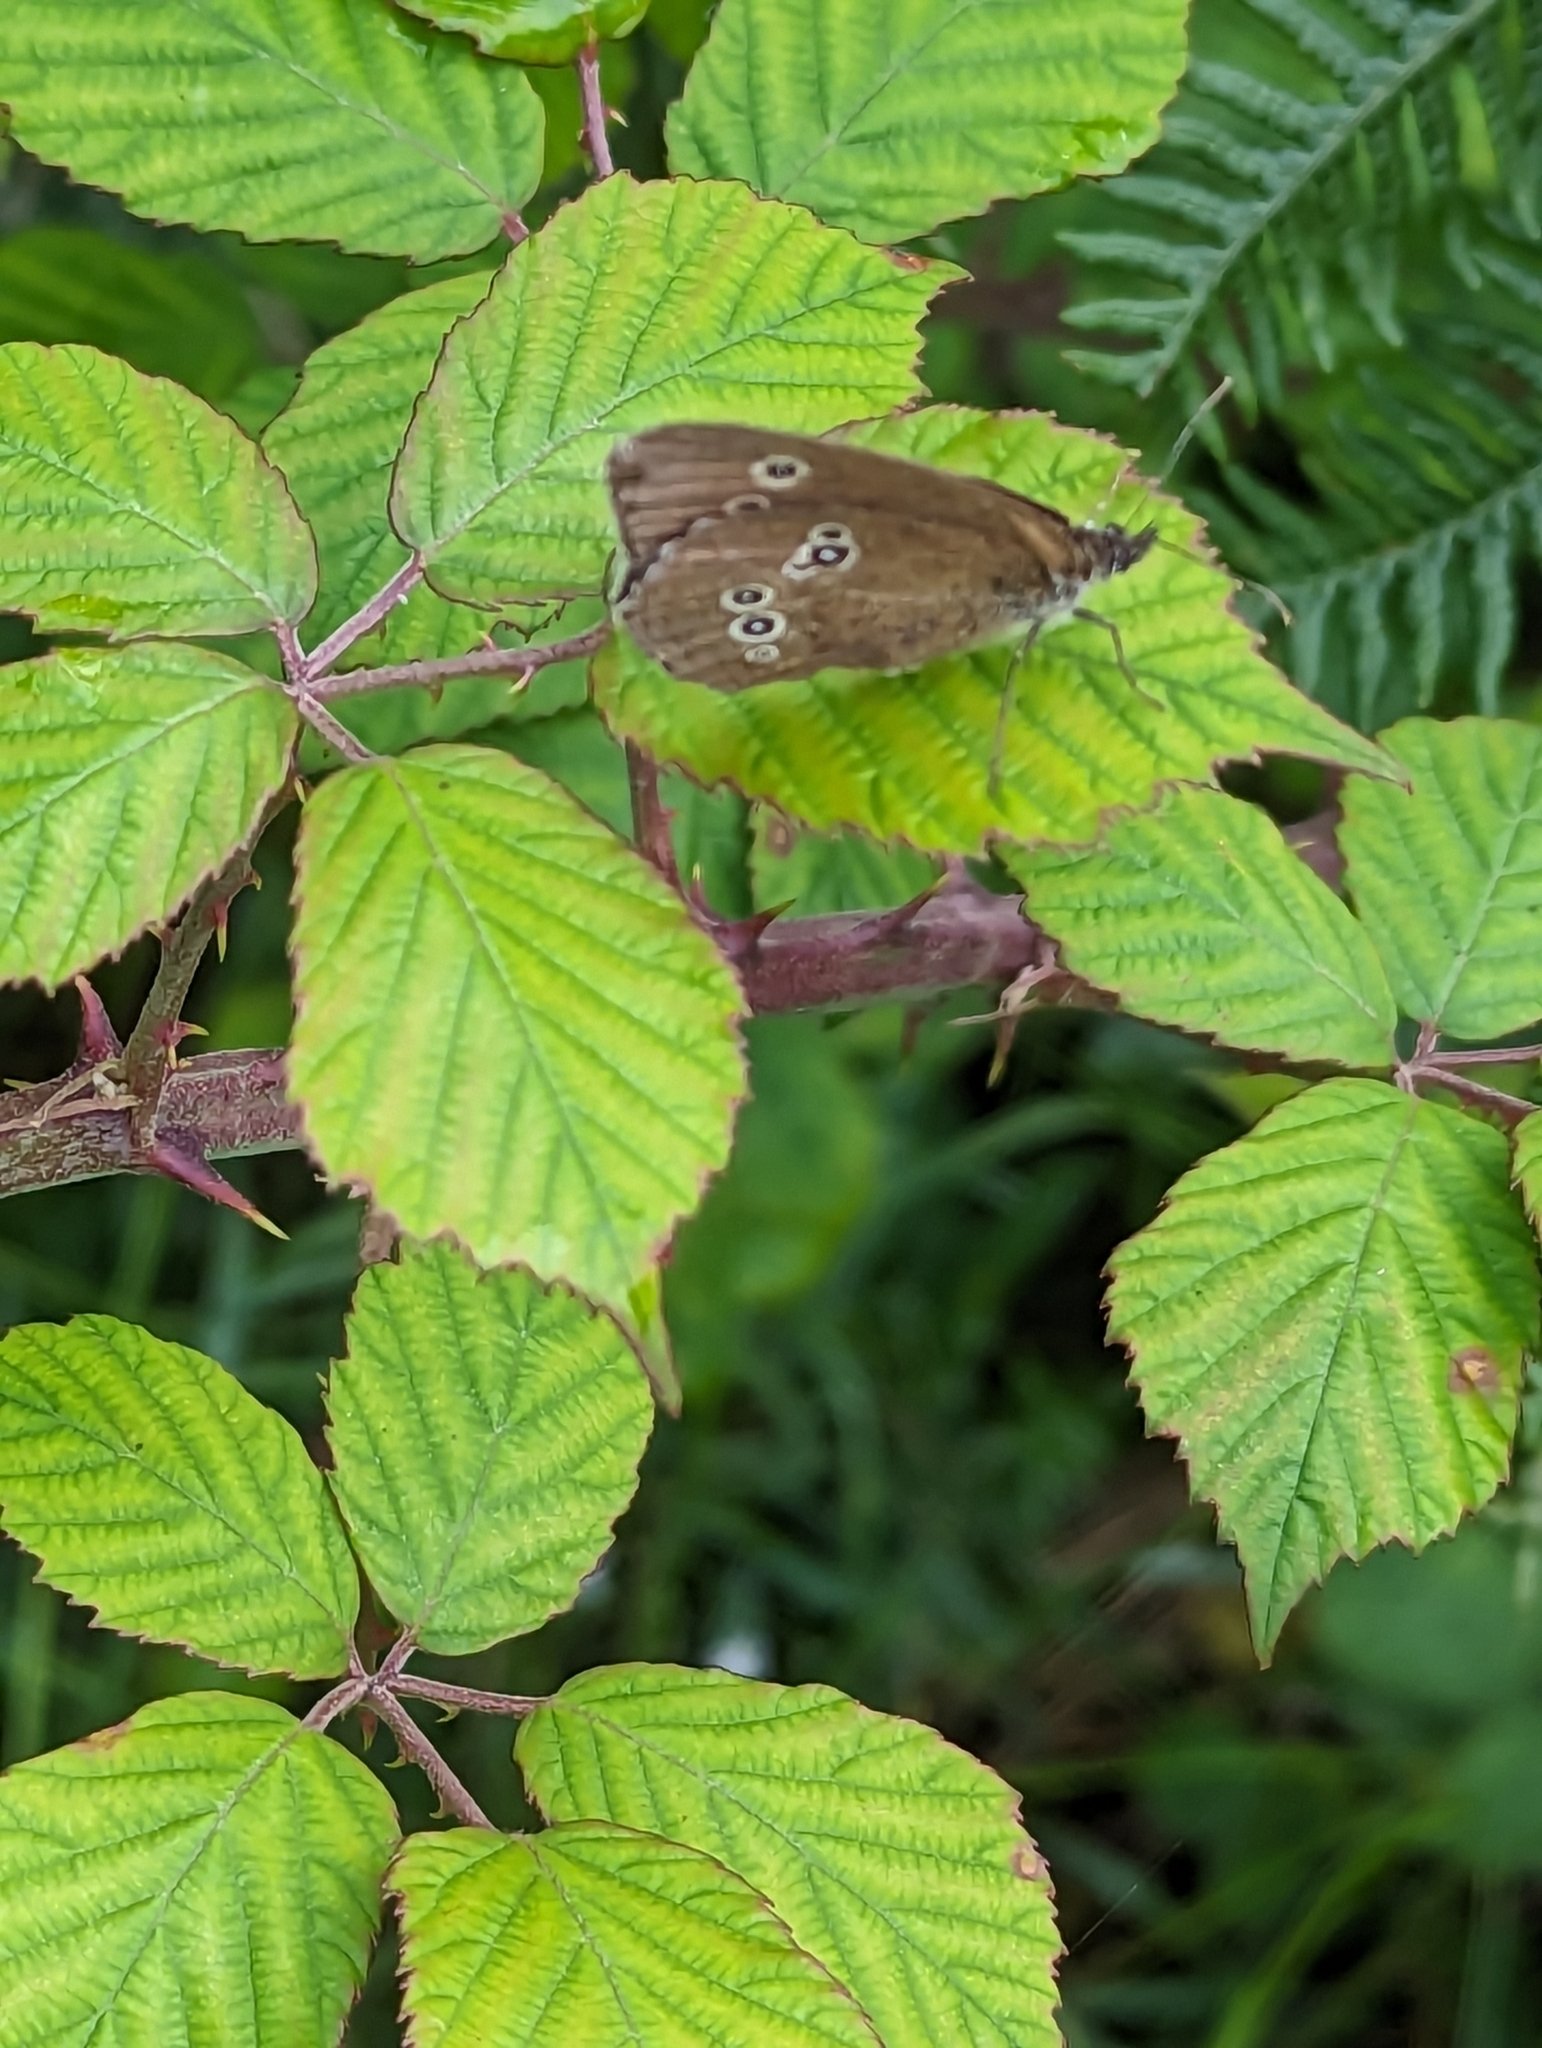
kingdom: Animalia
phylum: Arthropoda
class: Insecta
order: Lepidoptera
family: Nymphalidae
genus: Aphantopus
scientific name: Aphantopus hyperantus
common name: Ringlet
